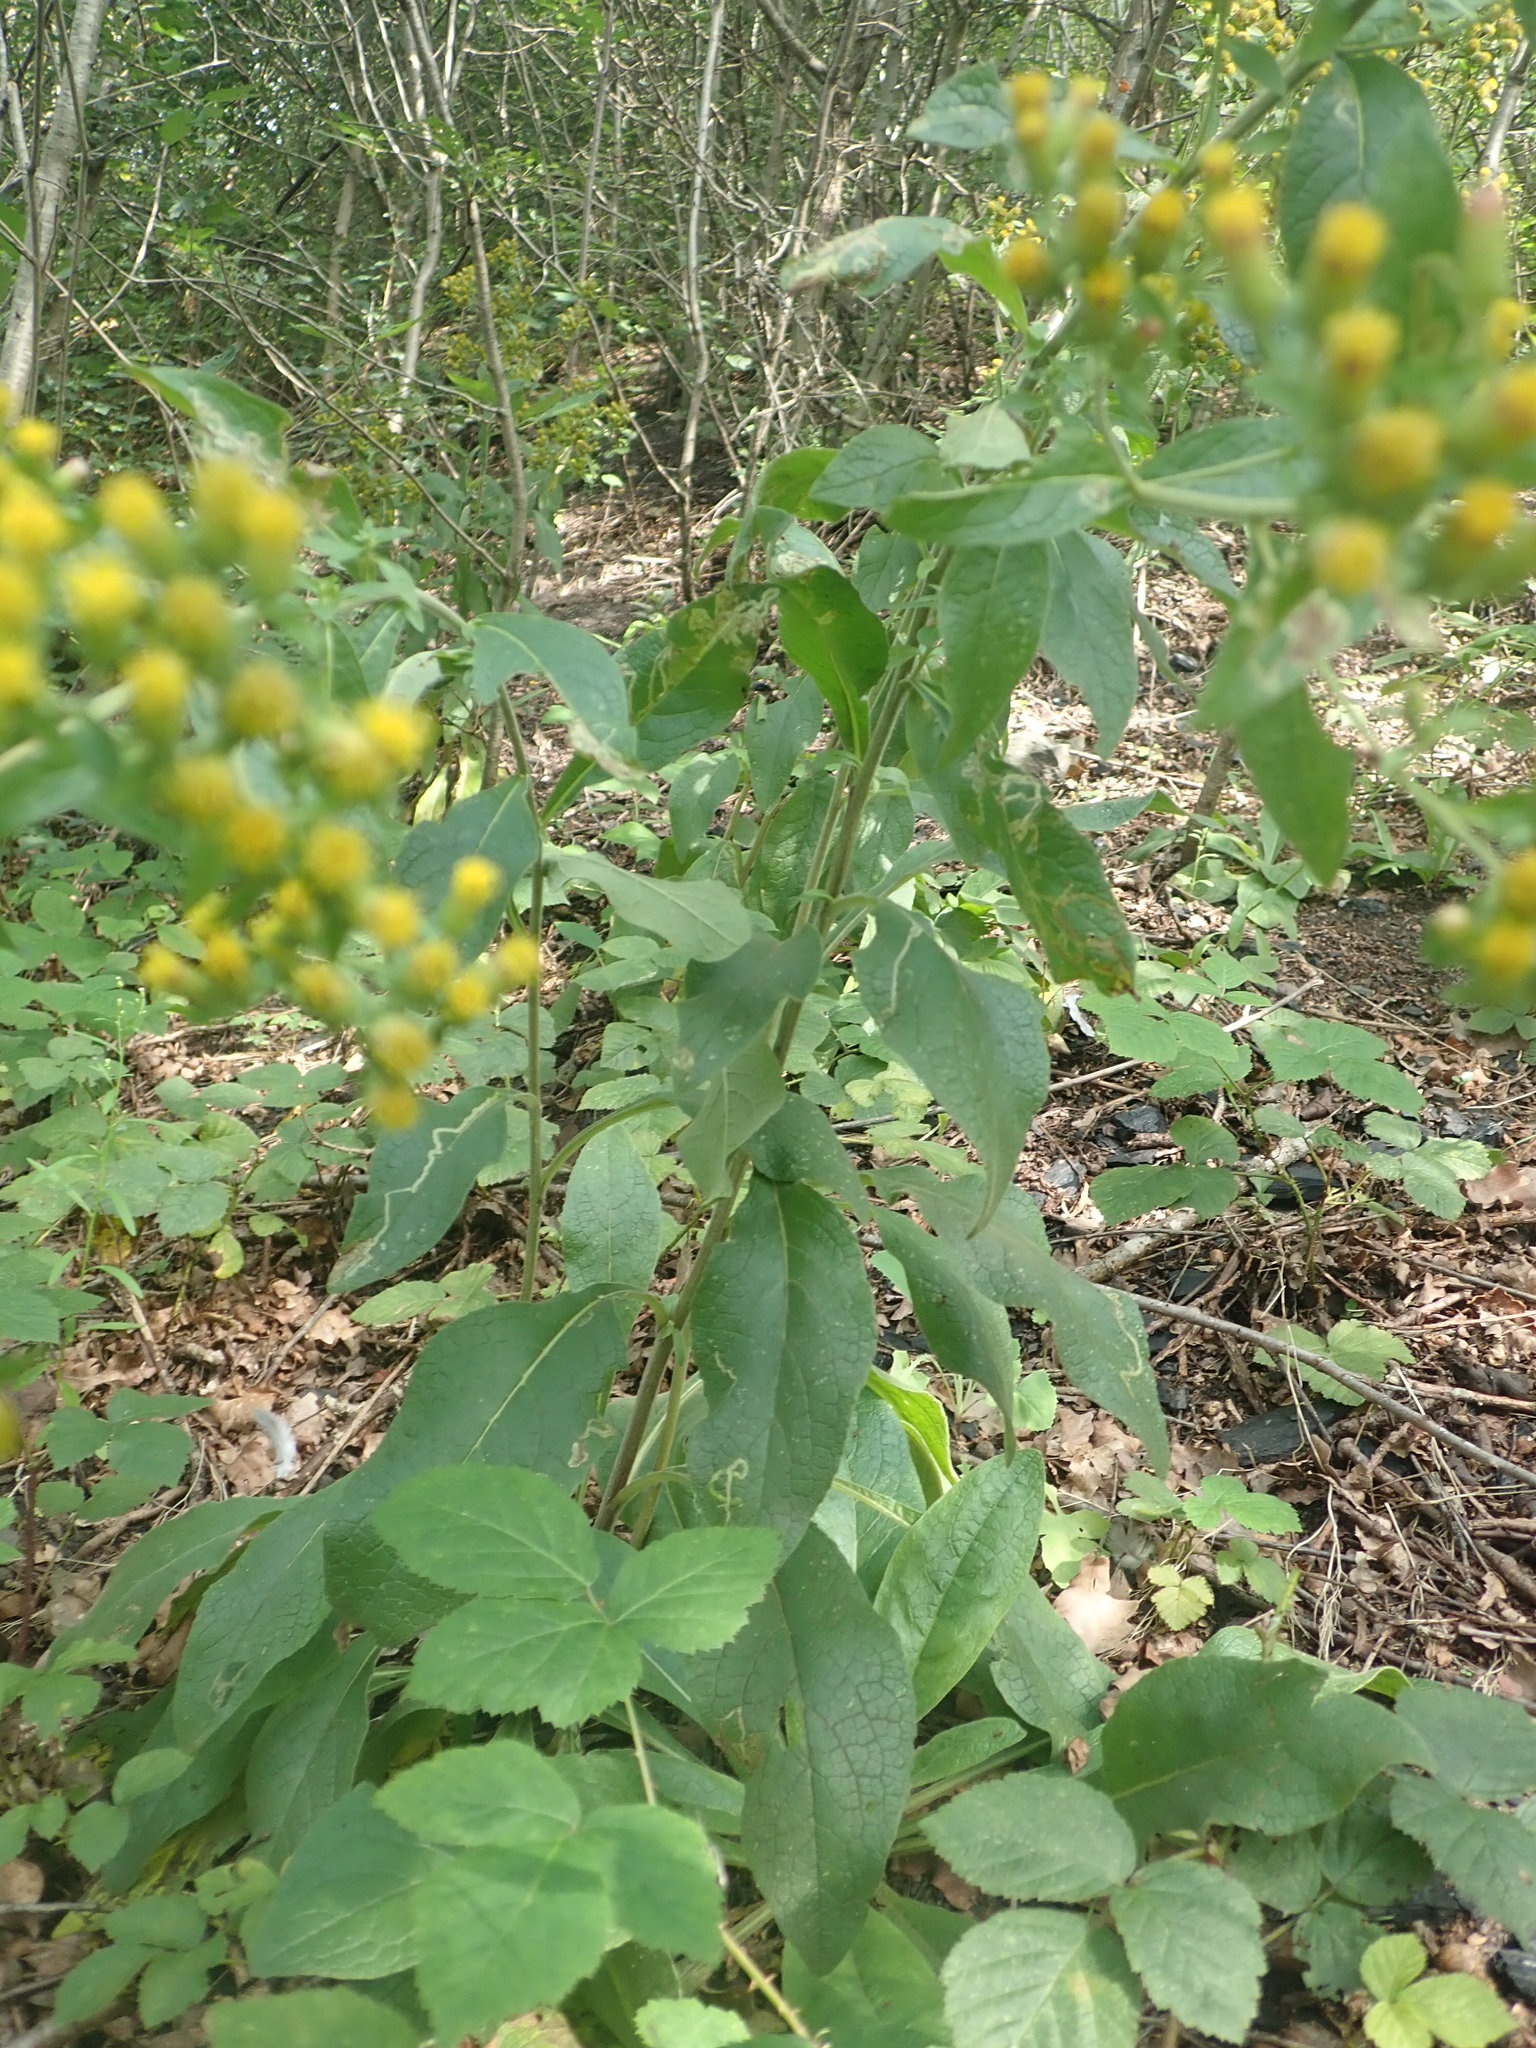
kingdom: Plantae
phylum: Tracheophyta
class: Magnoliopsida
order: Asterales
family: Asteraceae
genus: Pentanema
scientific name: Pentanema squarrosum
